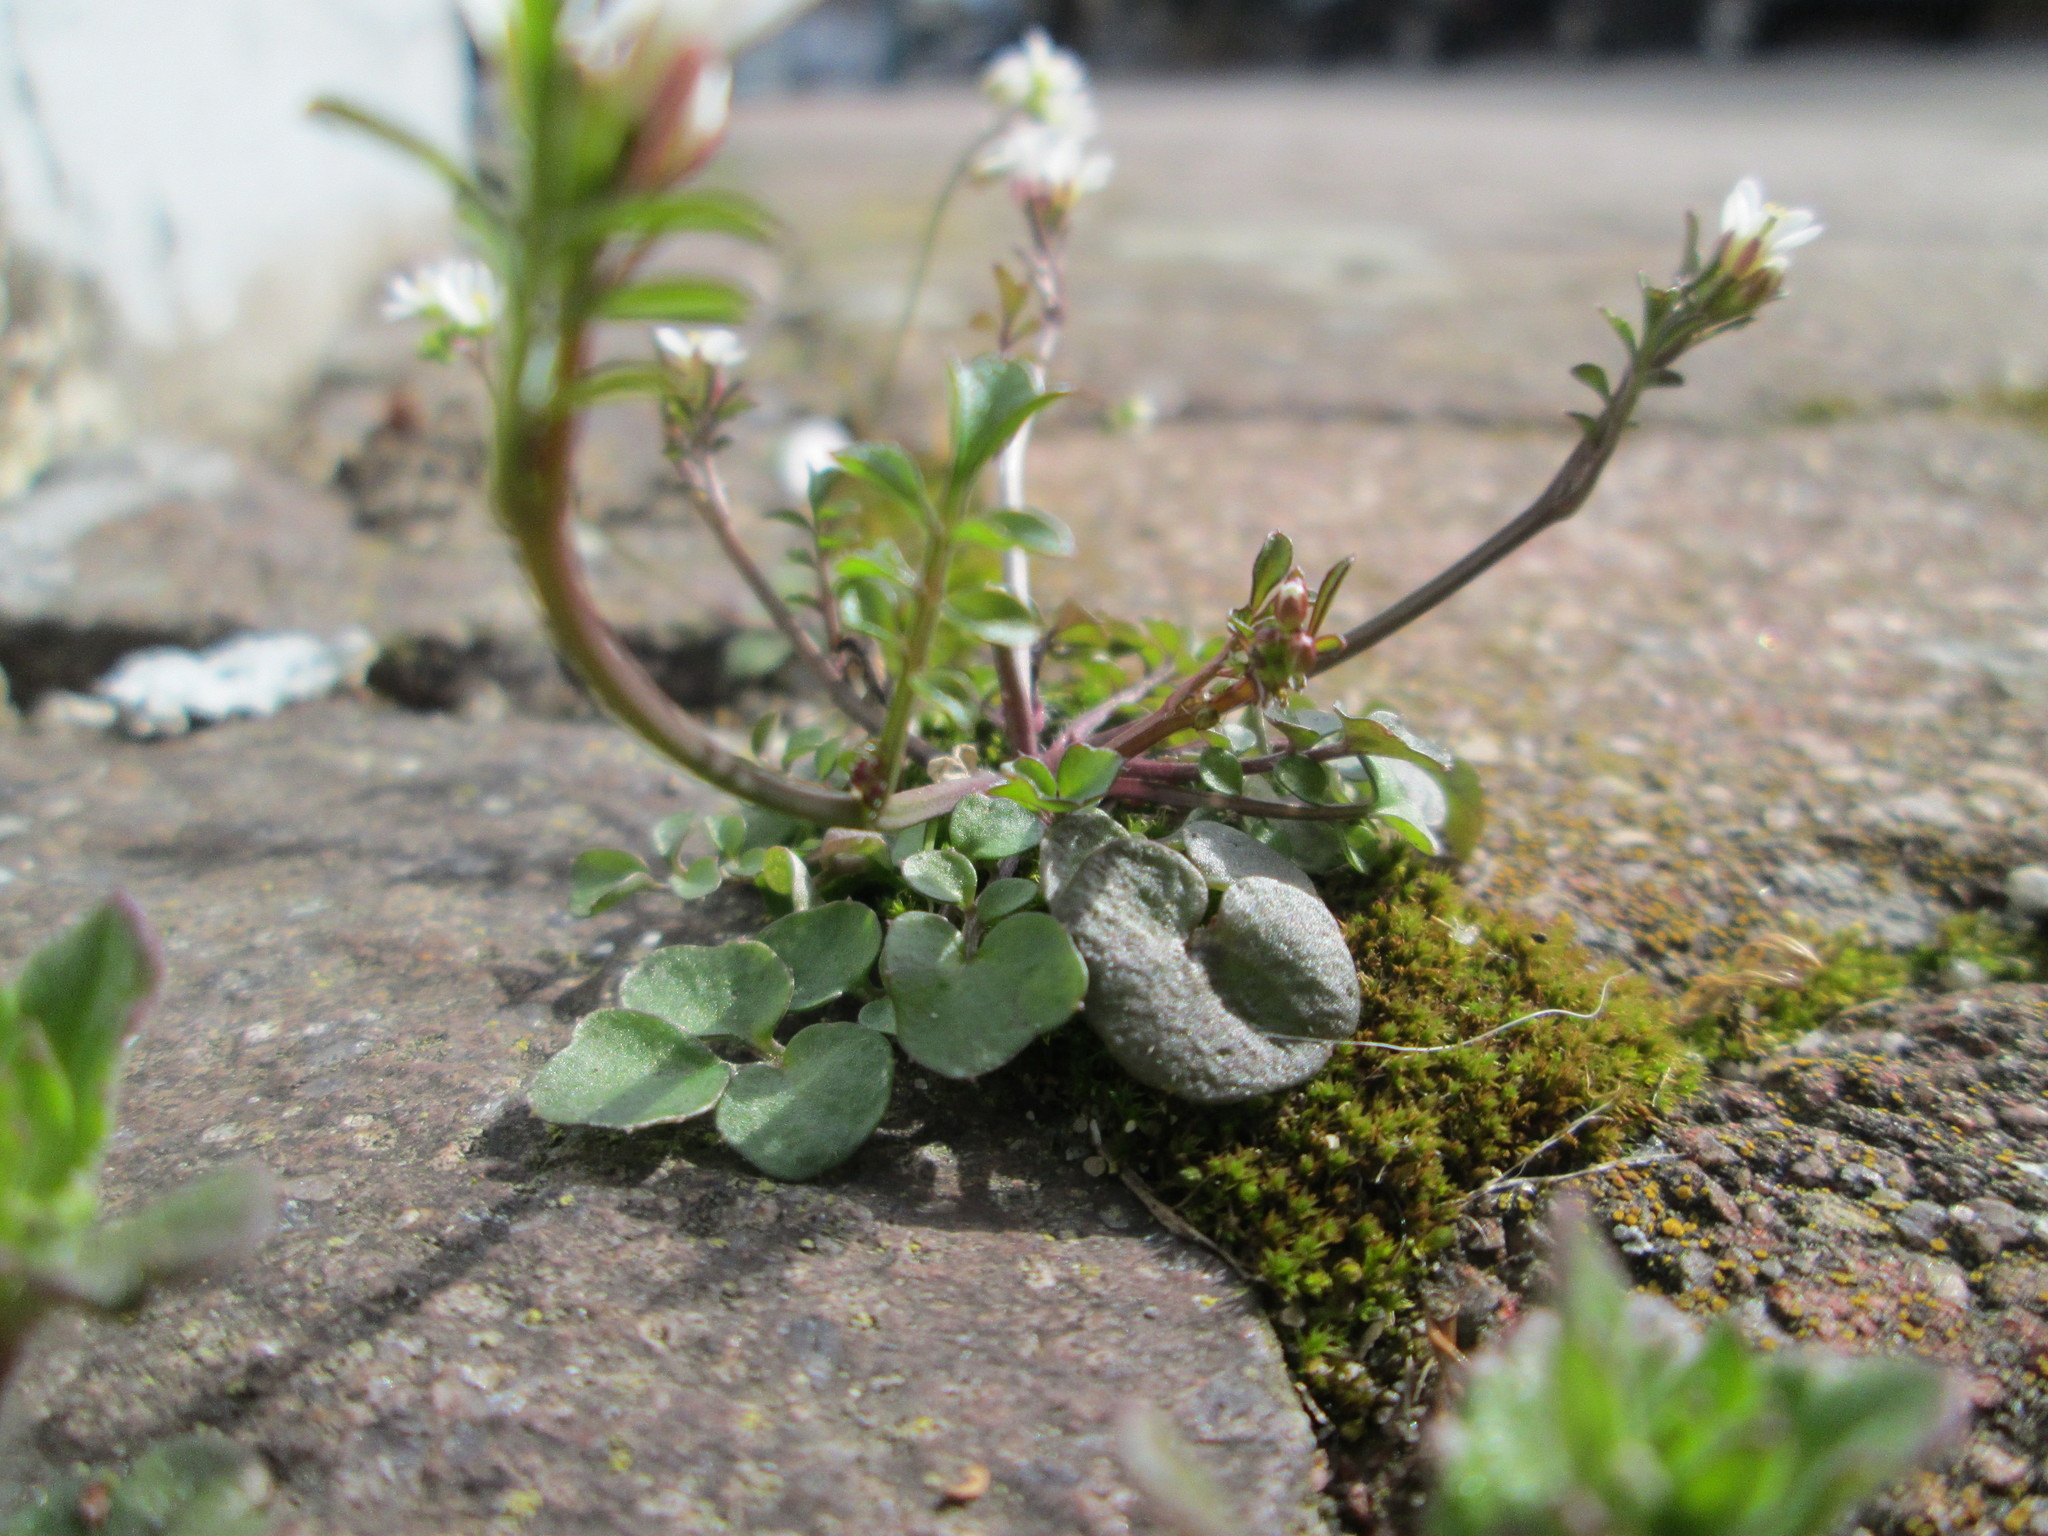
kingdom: Plantae
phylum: Tracheophyta
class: Magnoliopsida
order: Brassicales
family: Brassicaceae
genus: Cardamine
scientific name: Cardamine hirsuta
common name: Hairy bittercress
